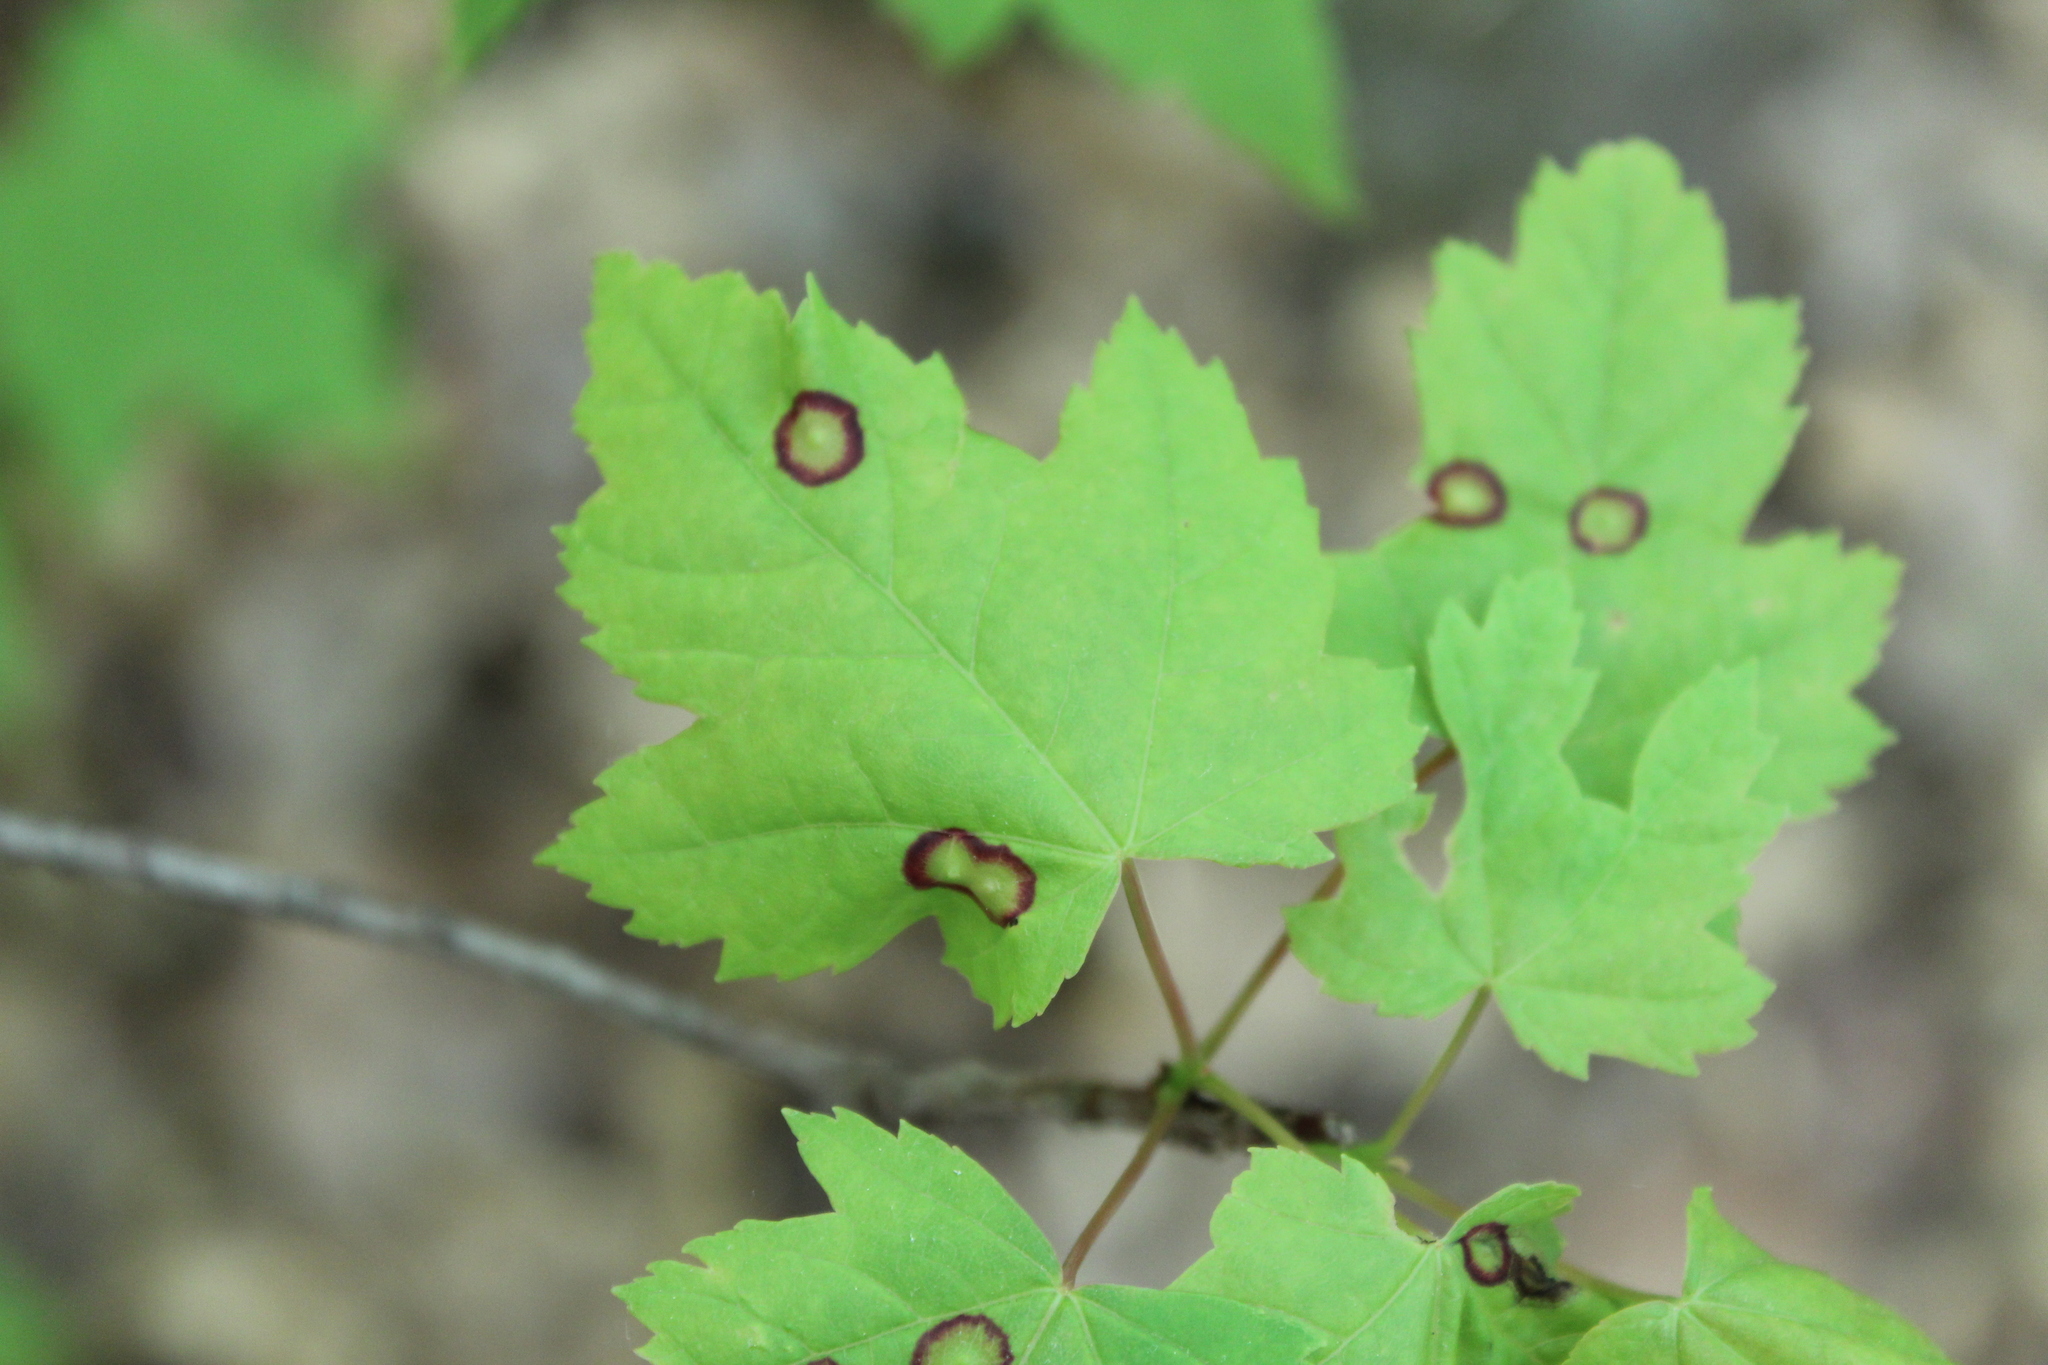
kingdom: Animalia
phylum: Arthropoda
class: Insecta
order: Diptera
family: Cecidomyiidae
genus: Acericecis
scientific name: Acericecis ocellaris
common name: Ocellate gall midge
